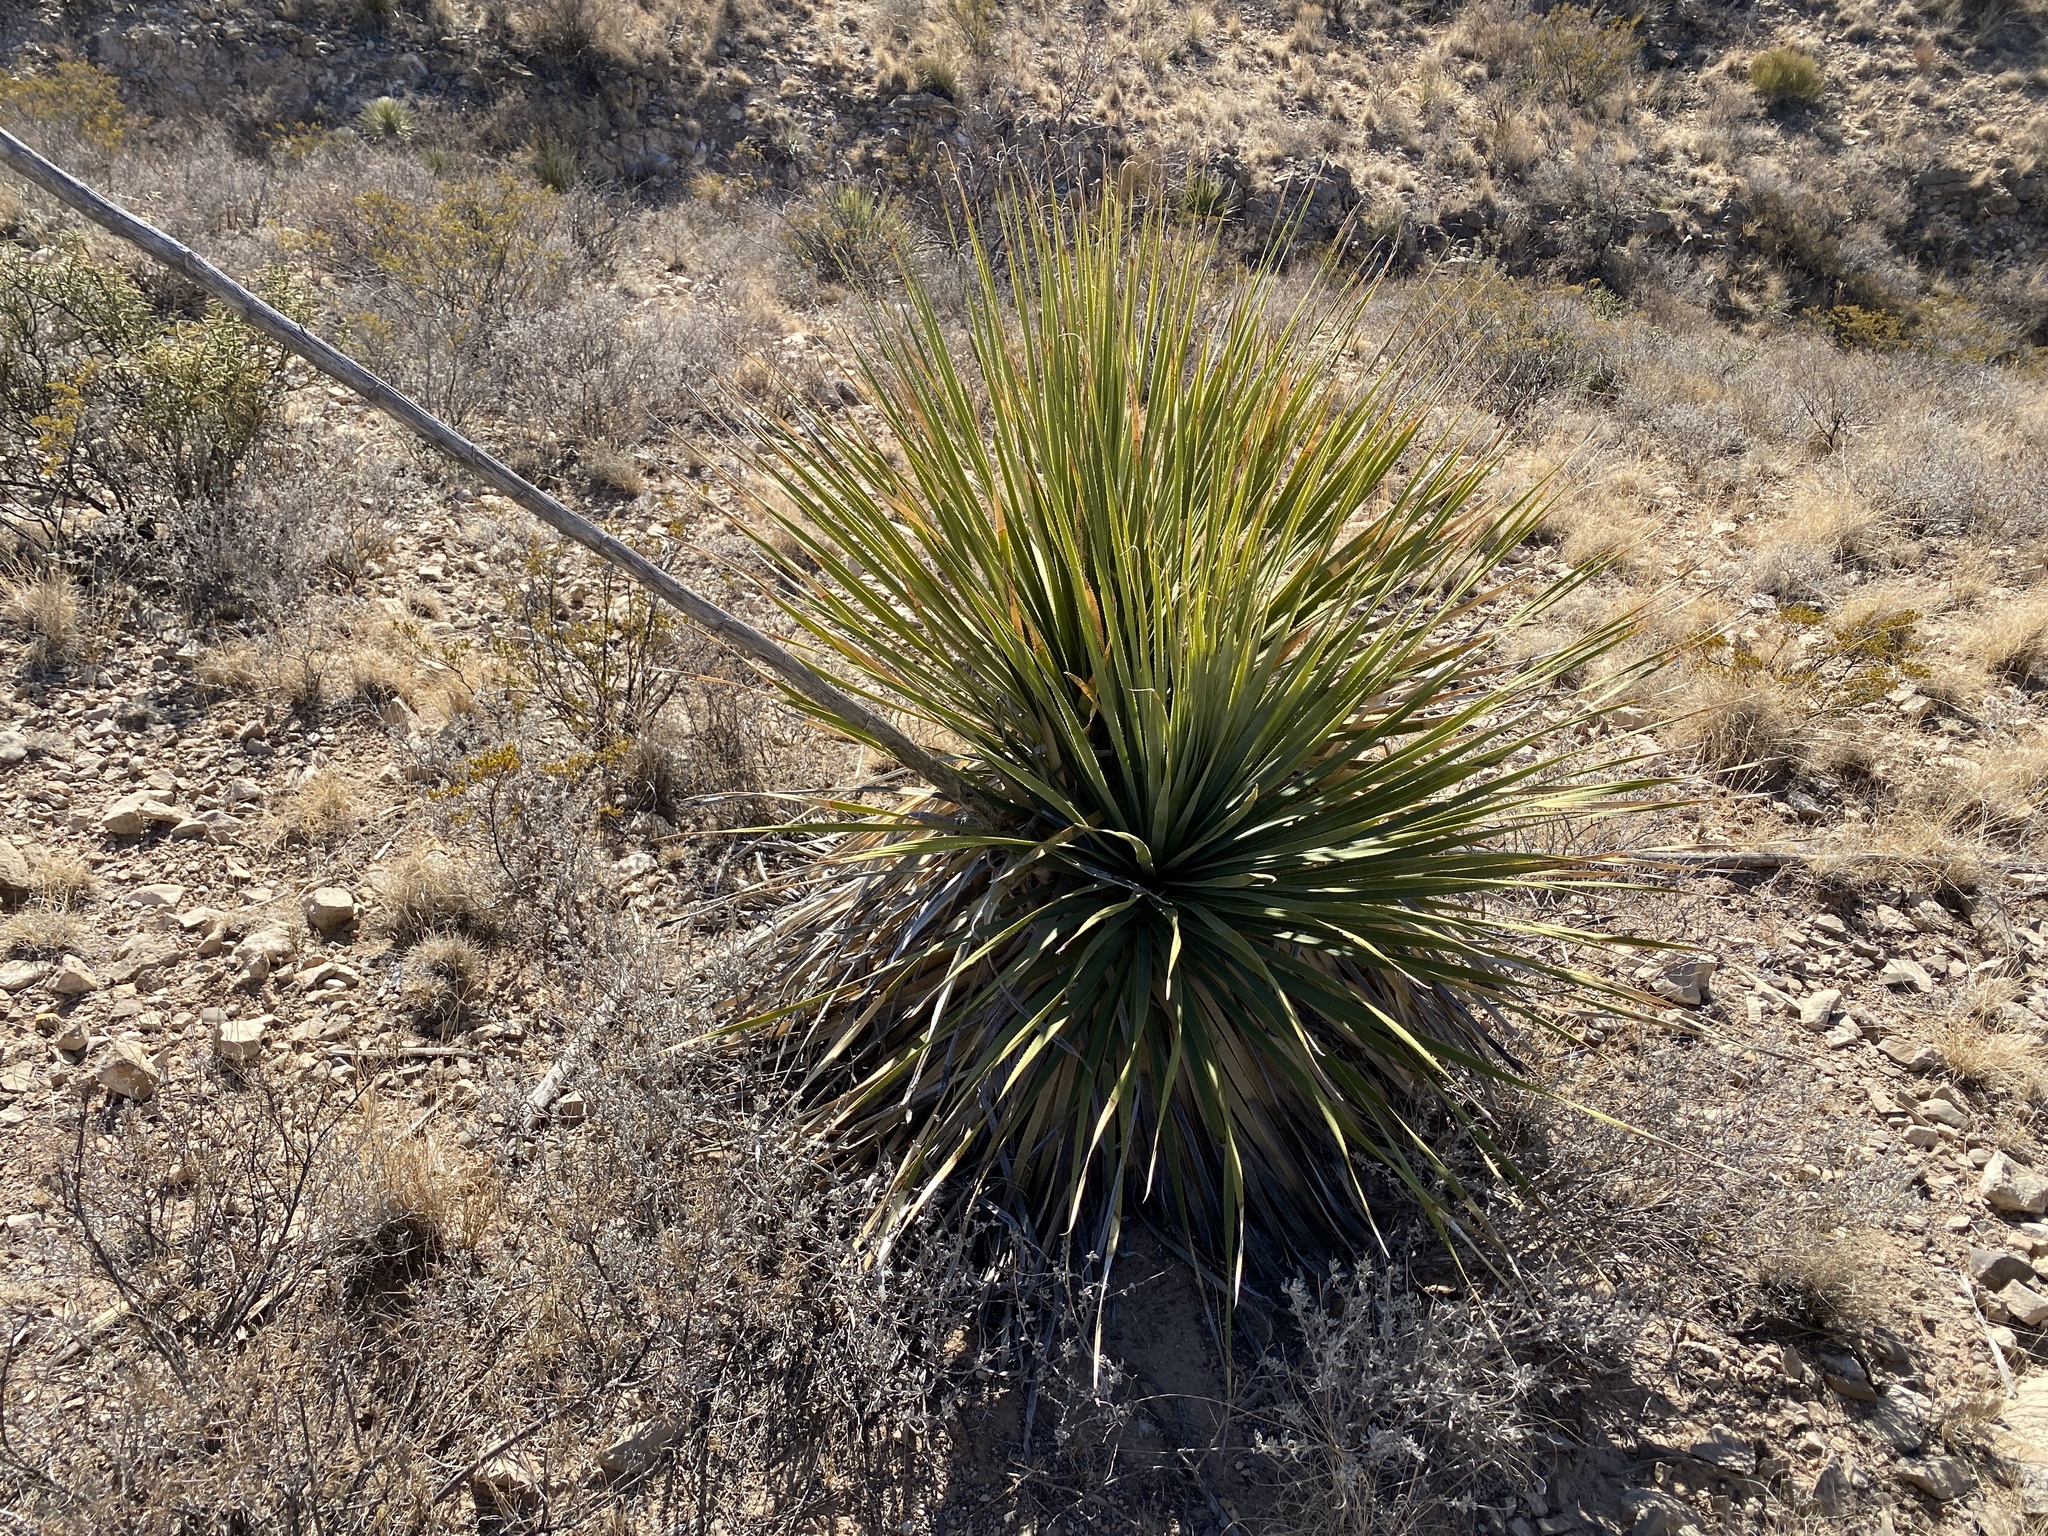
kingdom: Plantae
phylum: Tracheophyta
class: Liliopsida
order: Asparagales
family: Asparagaceae
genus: Dasylirion
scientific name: Dasylirion wheeleri
